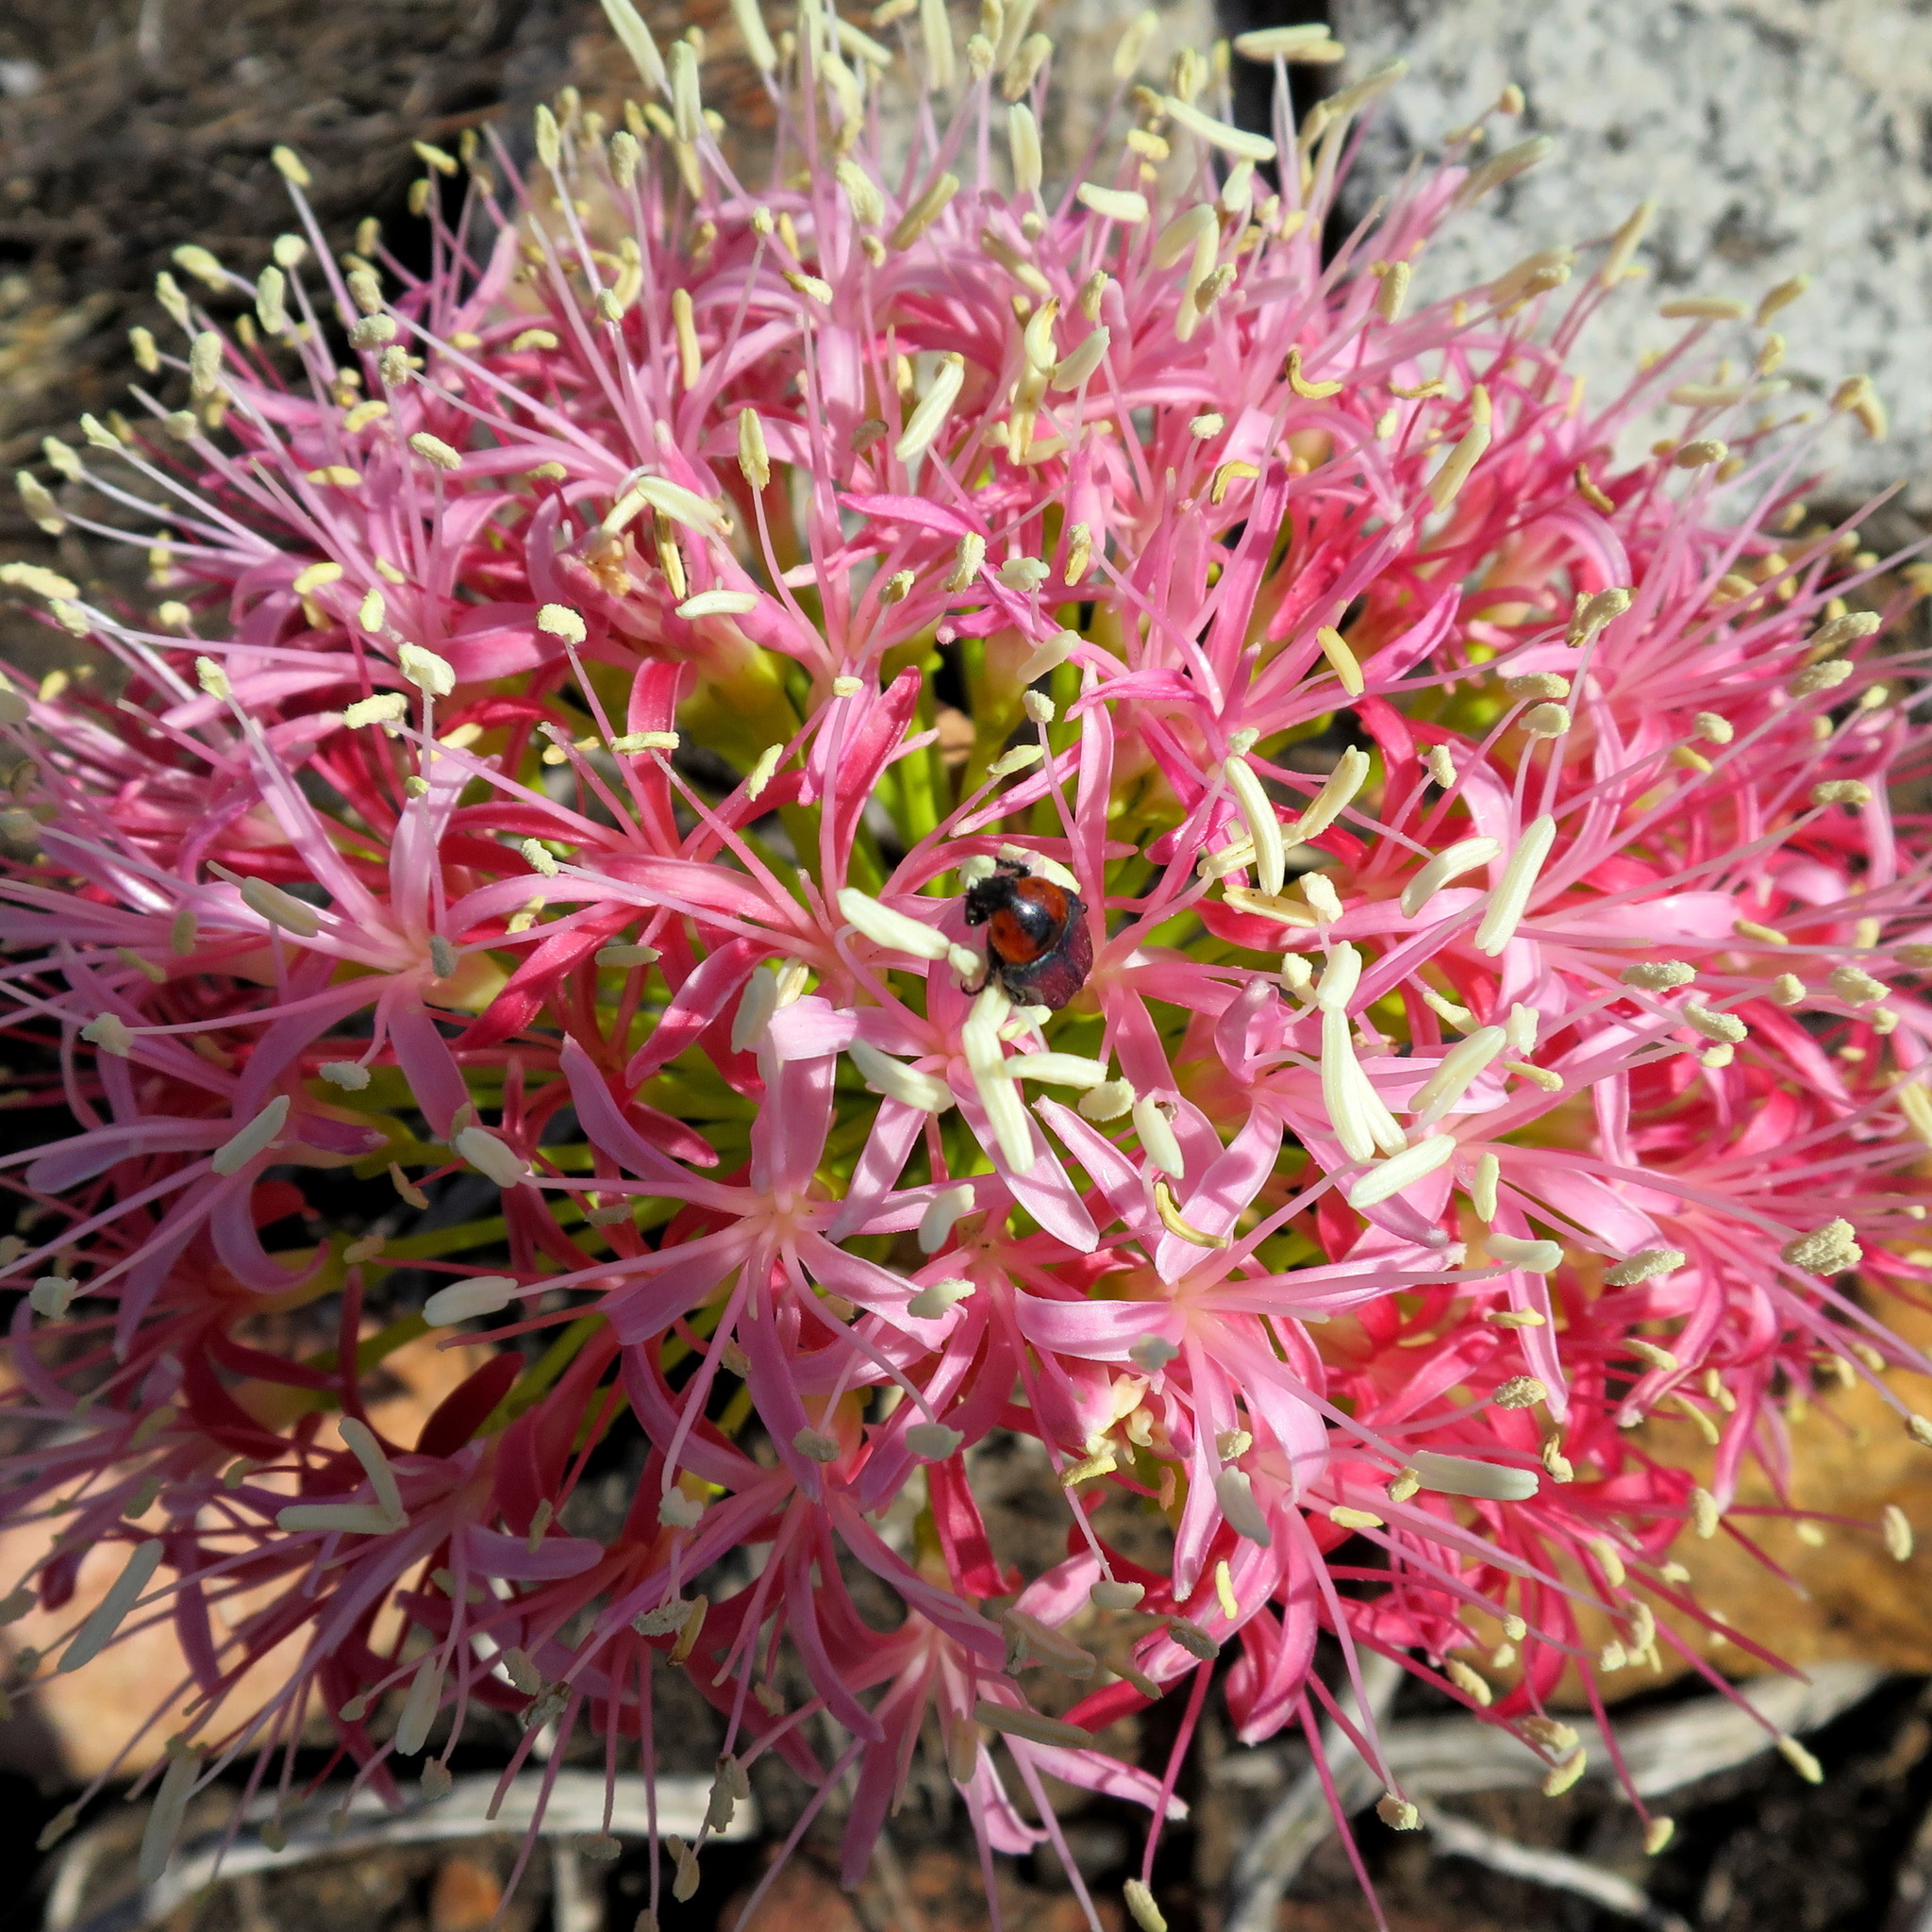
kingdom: Plantae
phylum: Tracheophyta
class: Liliopsida
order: Asparagales
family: Amaryllidaceae
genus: Boophone
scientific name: Boophone disticha
